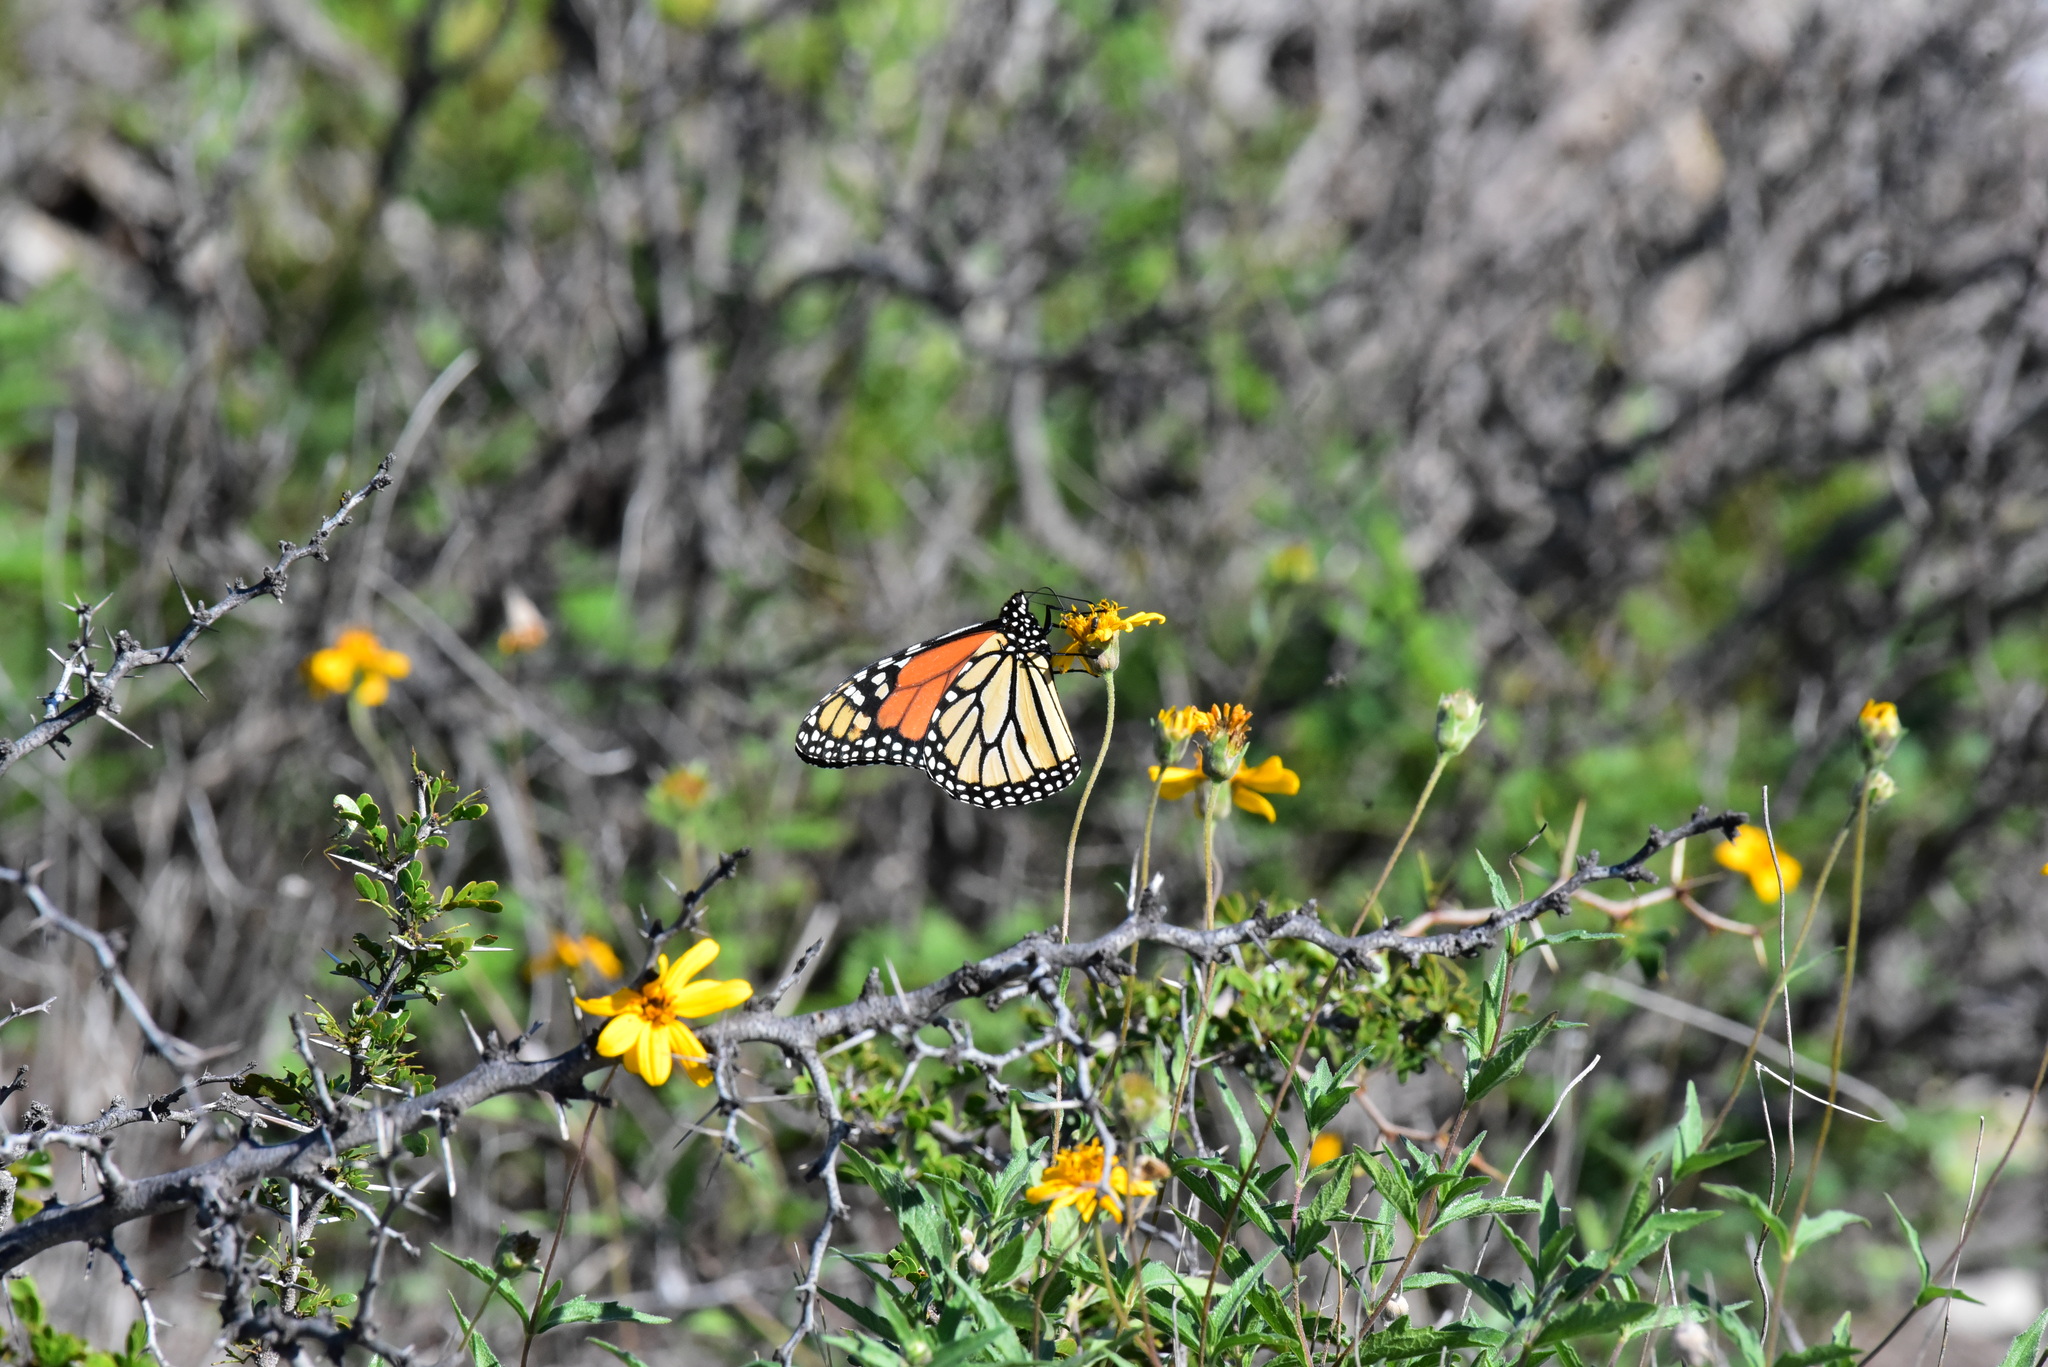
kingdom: Animalia
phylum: Arthropoda
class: Insecta
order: Lepidoptera
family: Nymphalidae
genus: Danaus
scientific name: Danaus plexippus
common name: Monarch
